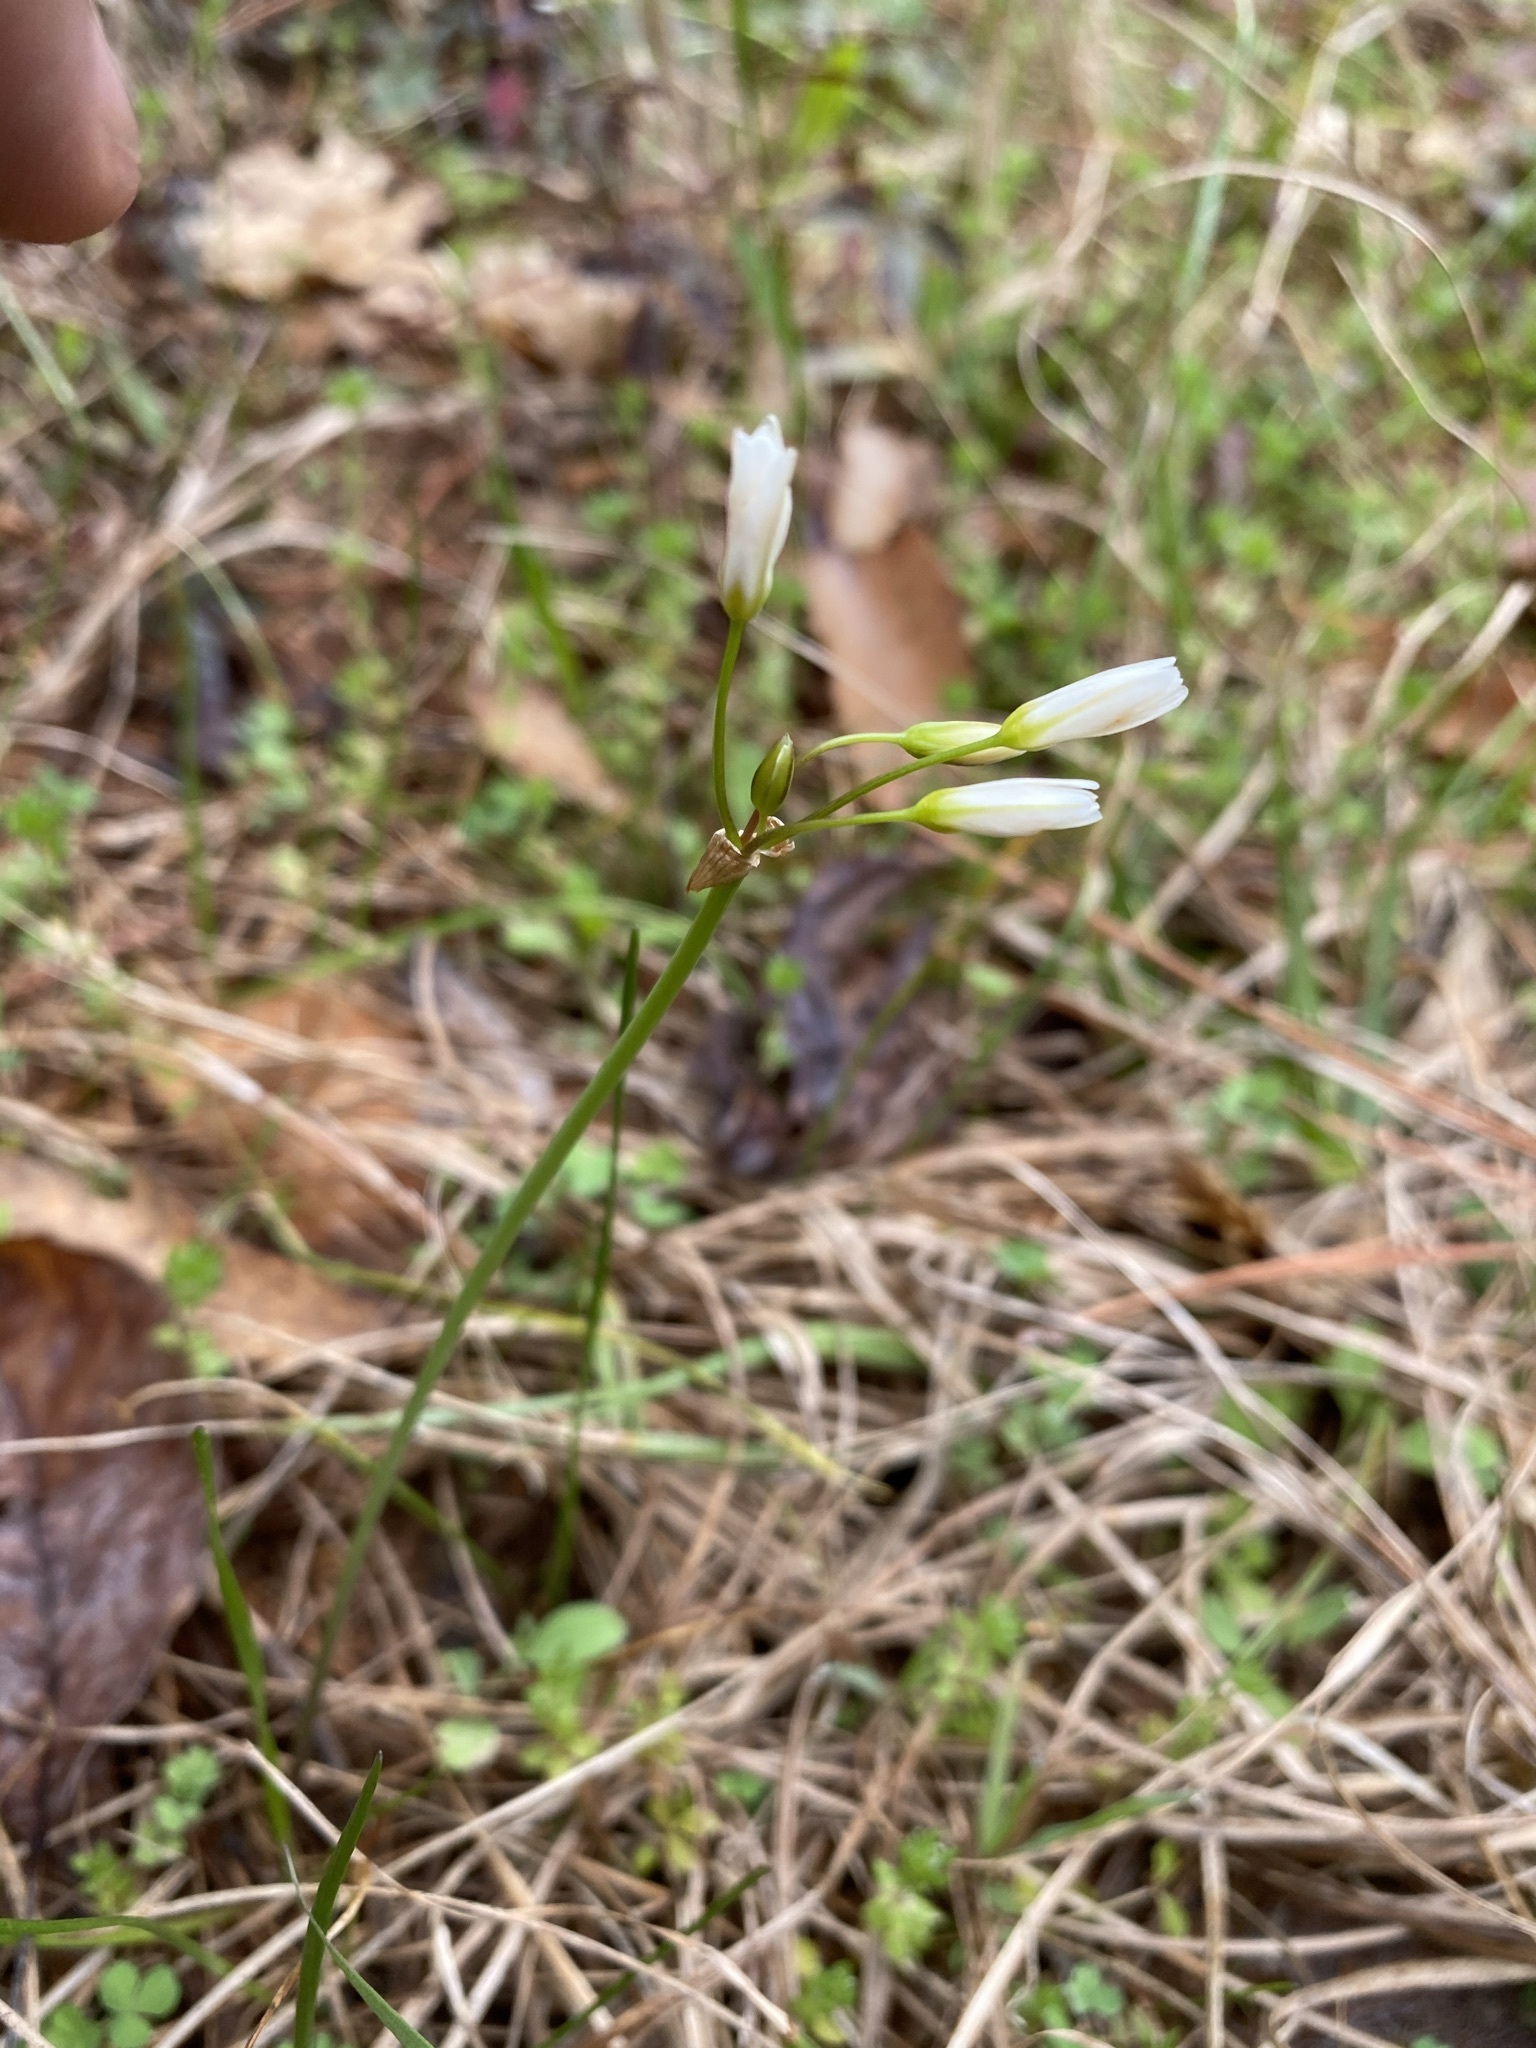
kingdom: Plantae
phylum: Tracheophyta
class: Liliopsida
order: Asparagales
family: Amaryllidaceae
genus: Nothoscordum
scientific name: Nothoscordum bivalve
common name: Crow-poison
